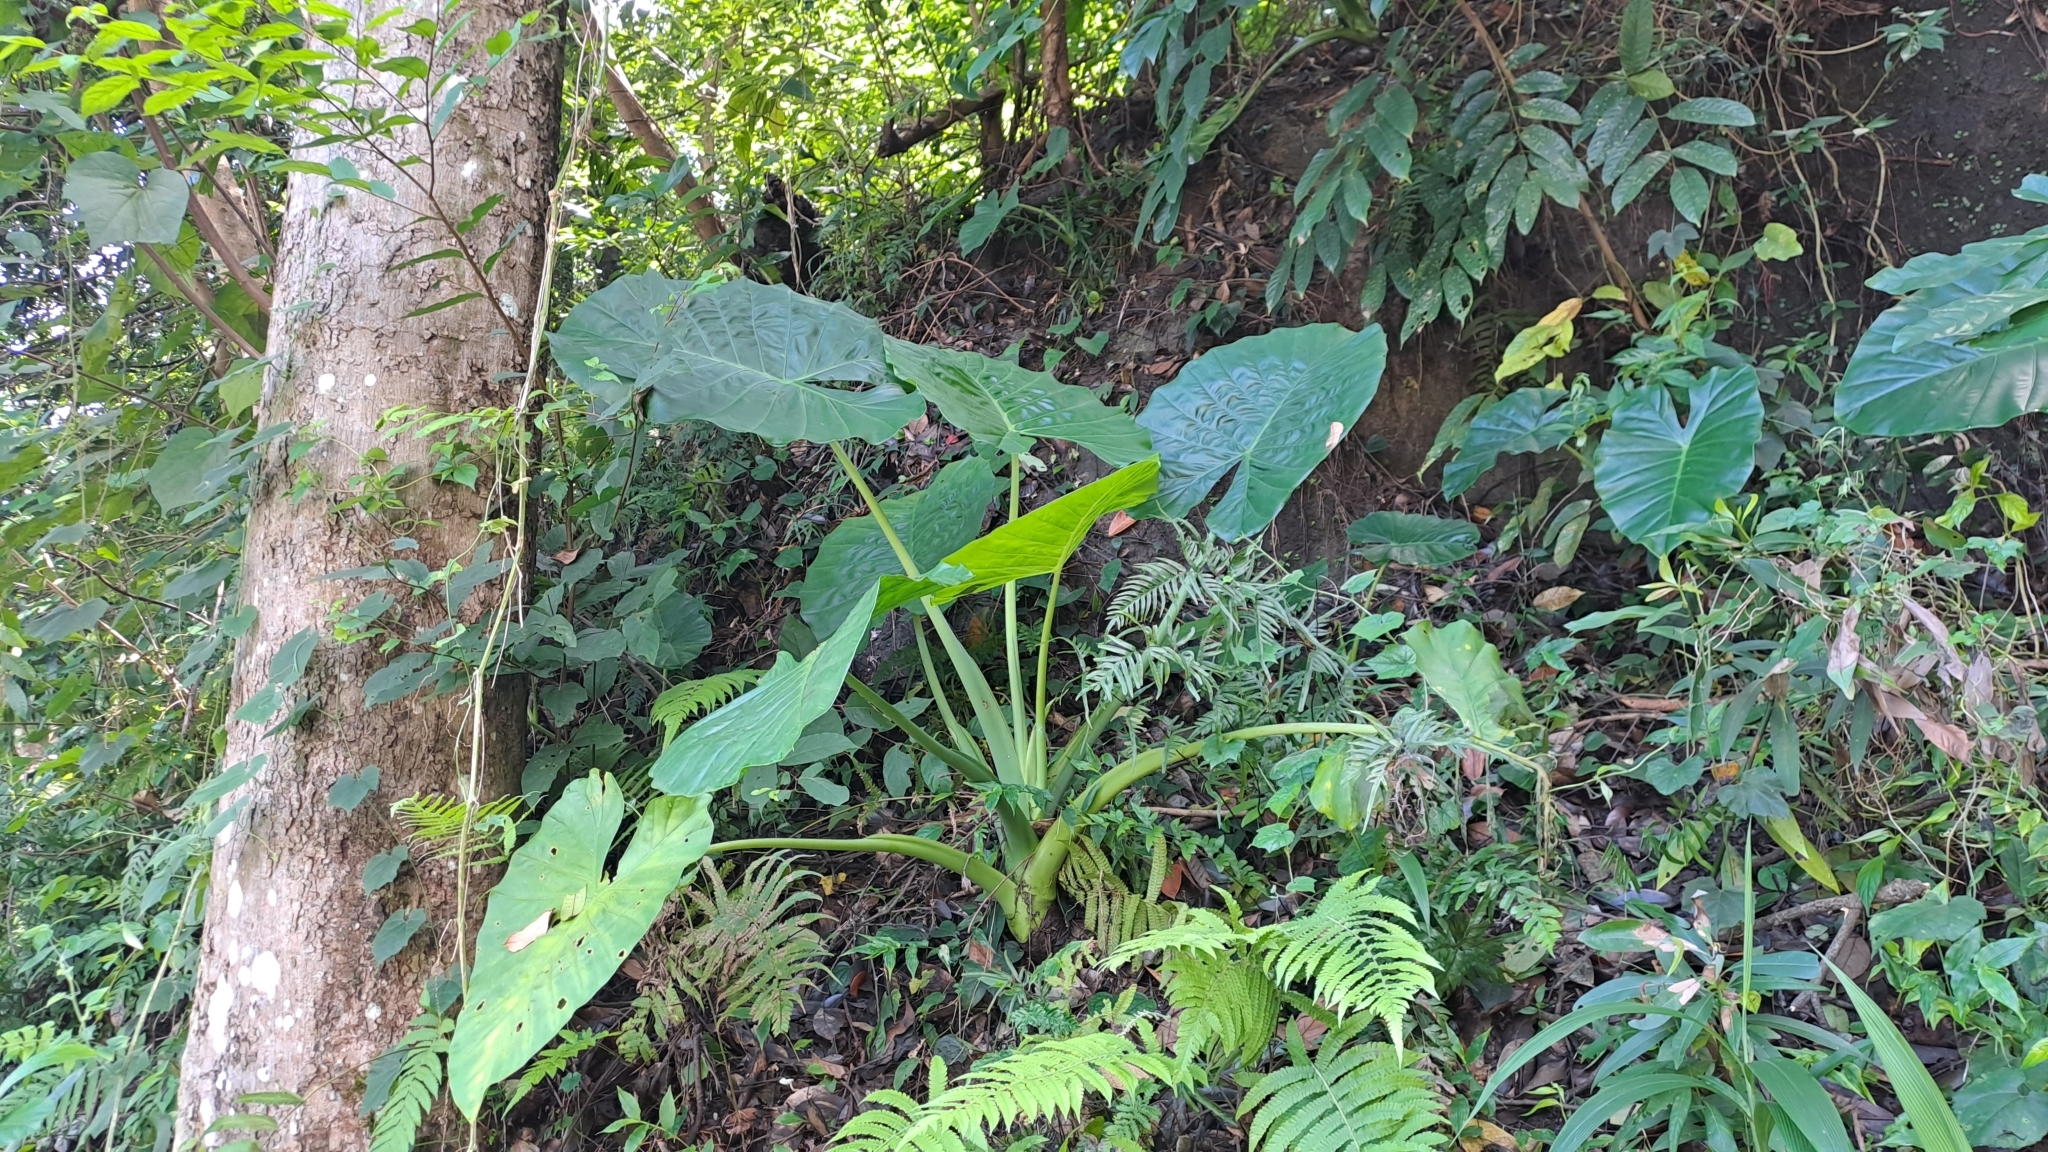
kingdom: Plantae
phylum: Tracheophyta
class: Liliopsida
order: Alismatales
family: Araceae
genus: Alocasia
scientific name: Alocasia macrorrhizos
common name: Giant taro
